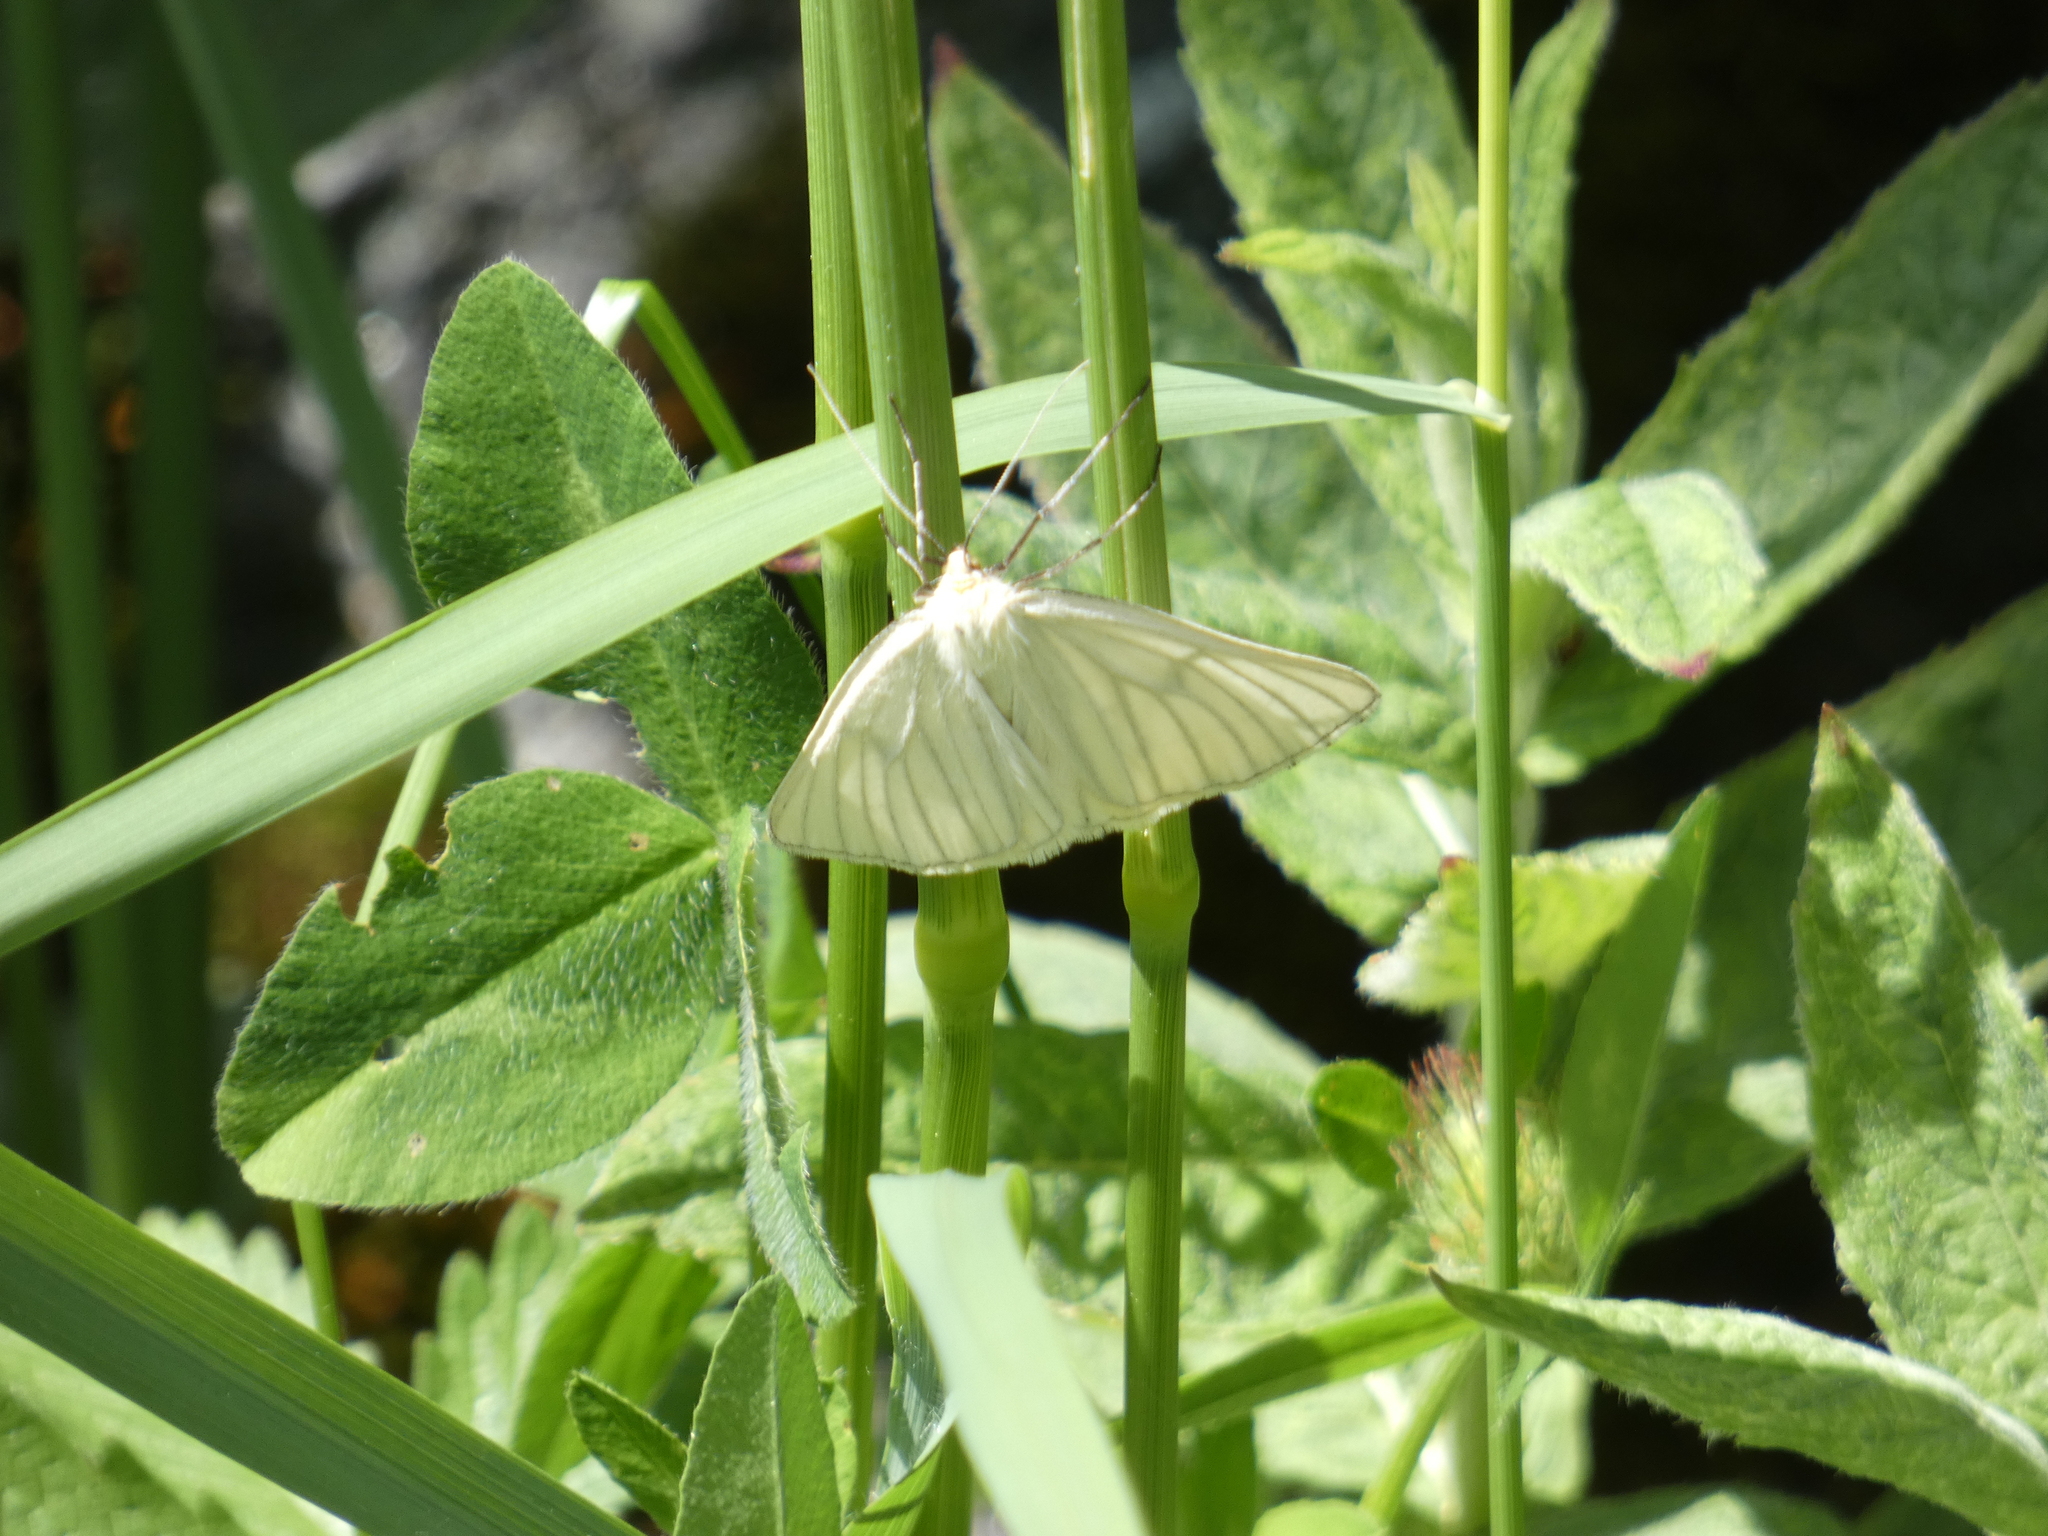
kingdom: Animalia
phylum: Arthropoda
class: Insecta
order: Lepidoptera
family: Geometridae
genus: Siona
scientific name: Siona lineata
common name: Black-veined moth
